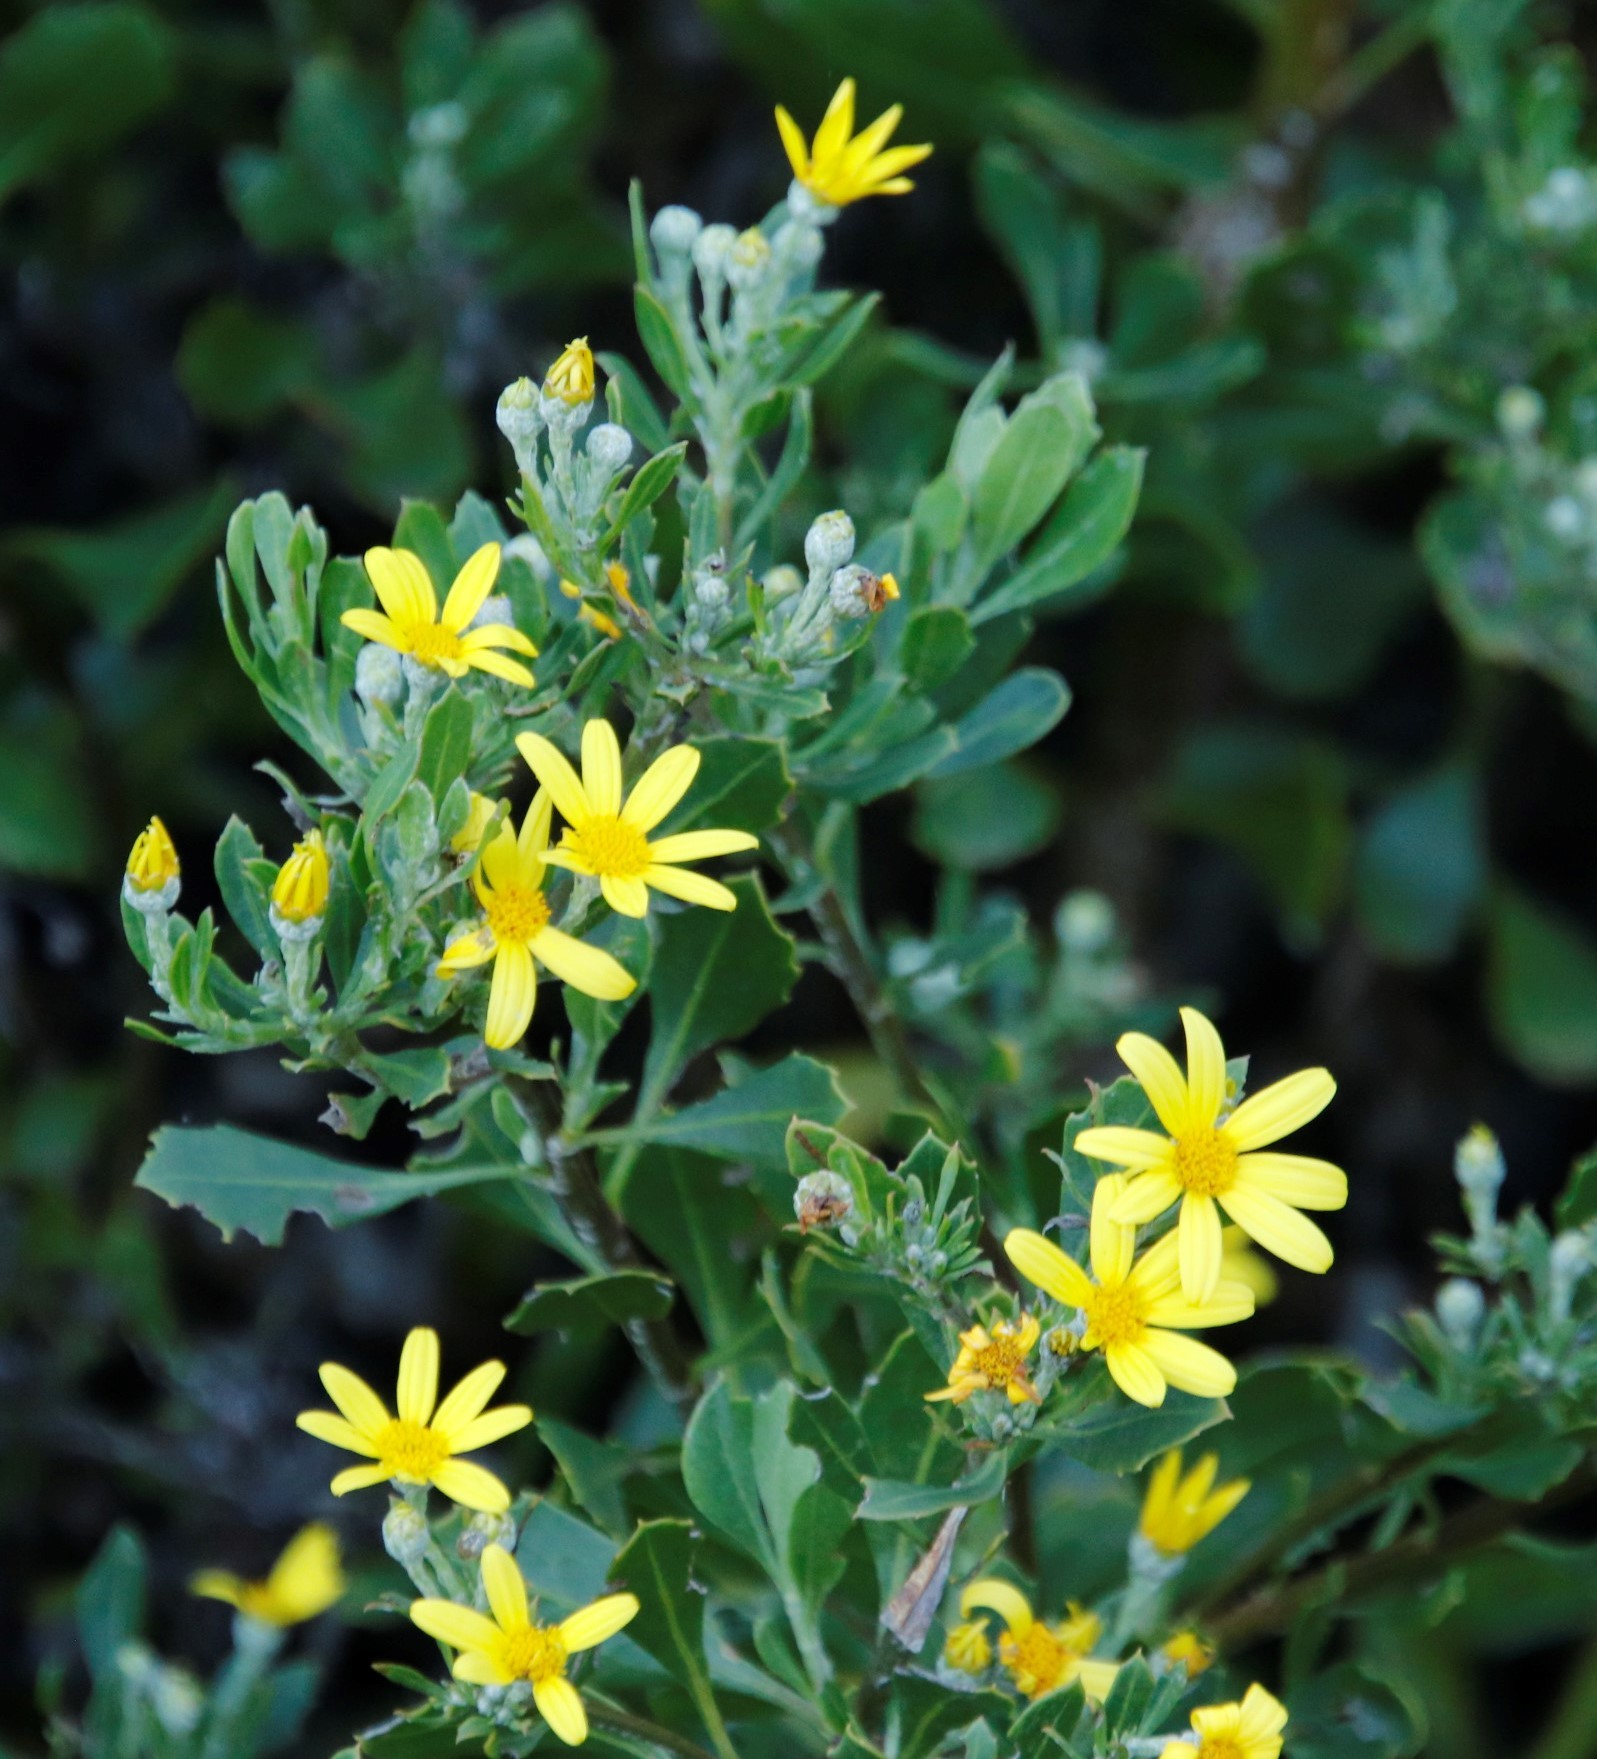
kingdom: Plantae
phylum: Tracheophyta
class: Magnoliopsida
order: Asterales
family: Asteraceae
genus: Osteospermum
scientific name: Osteospermum moniliferum
